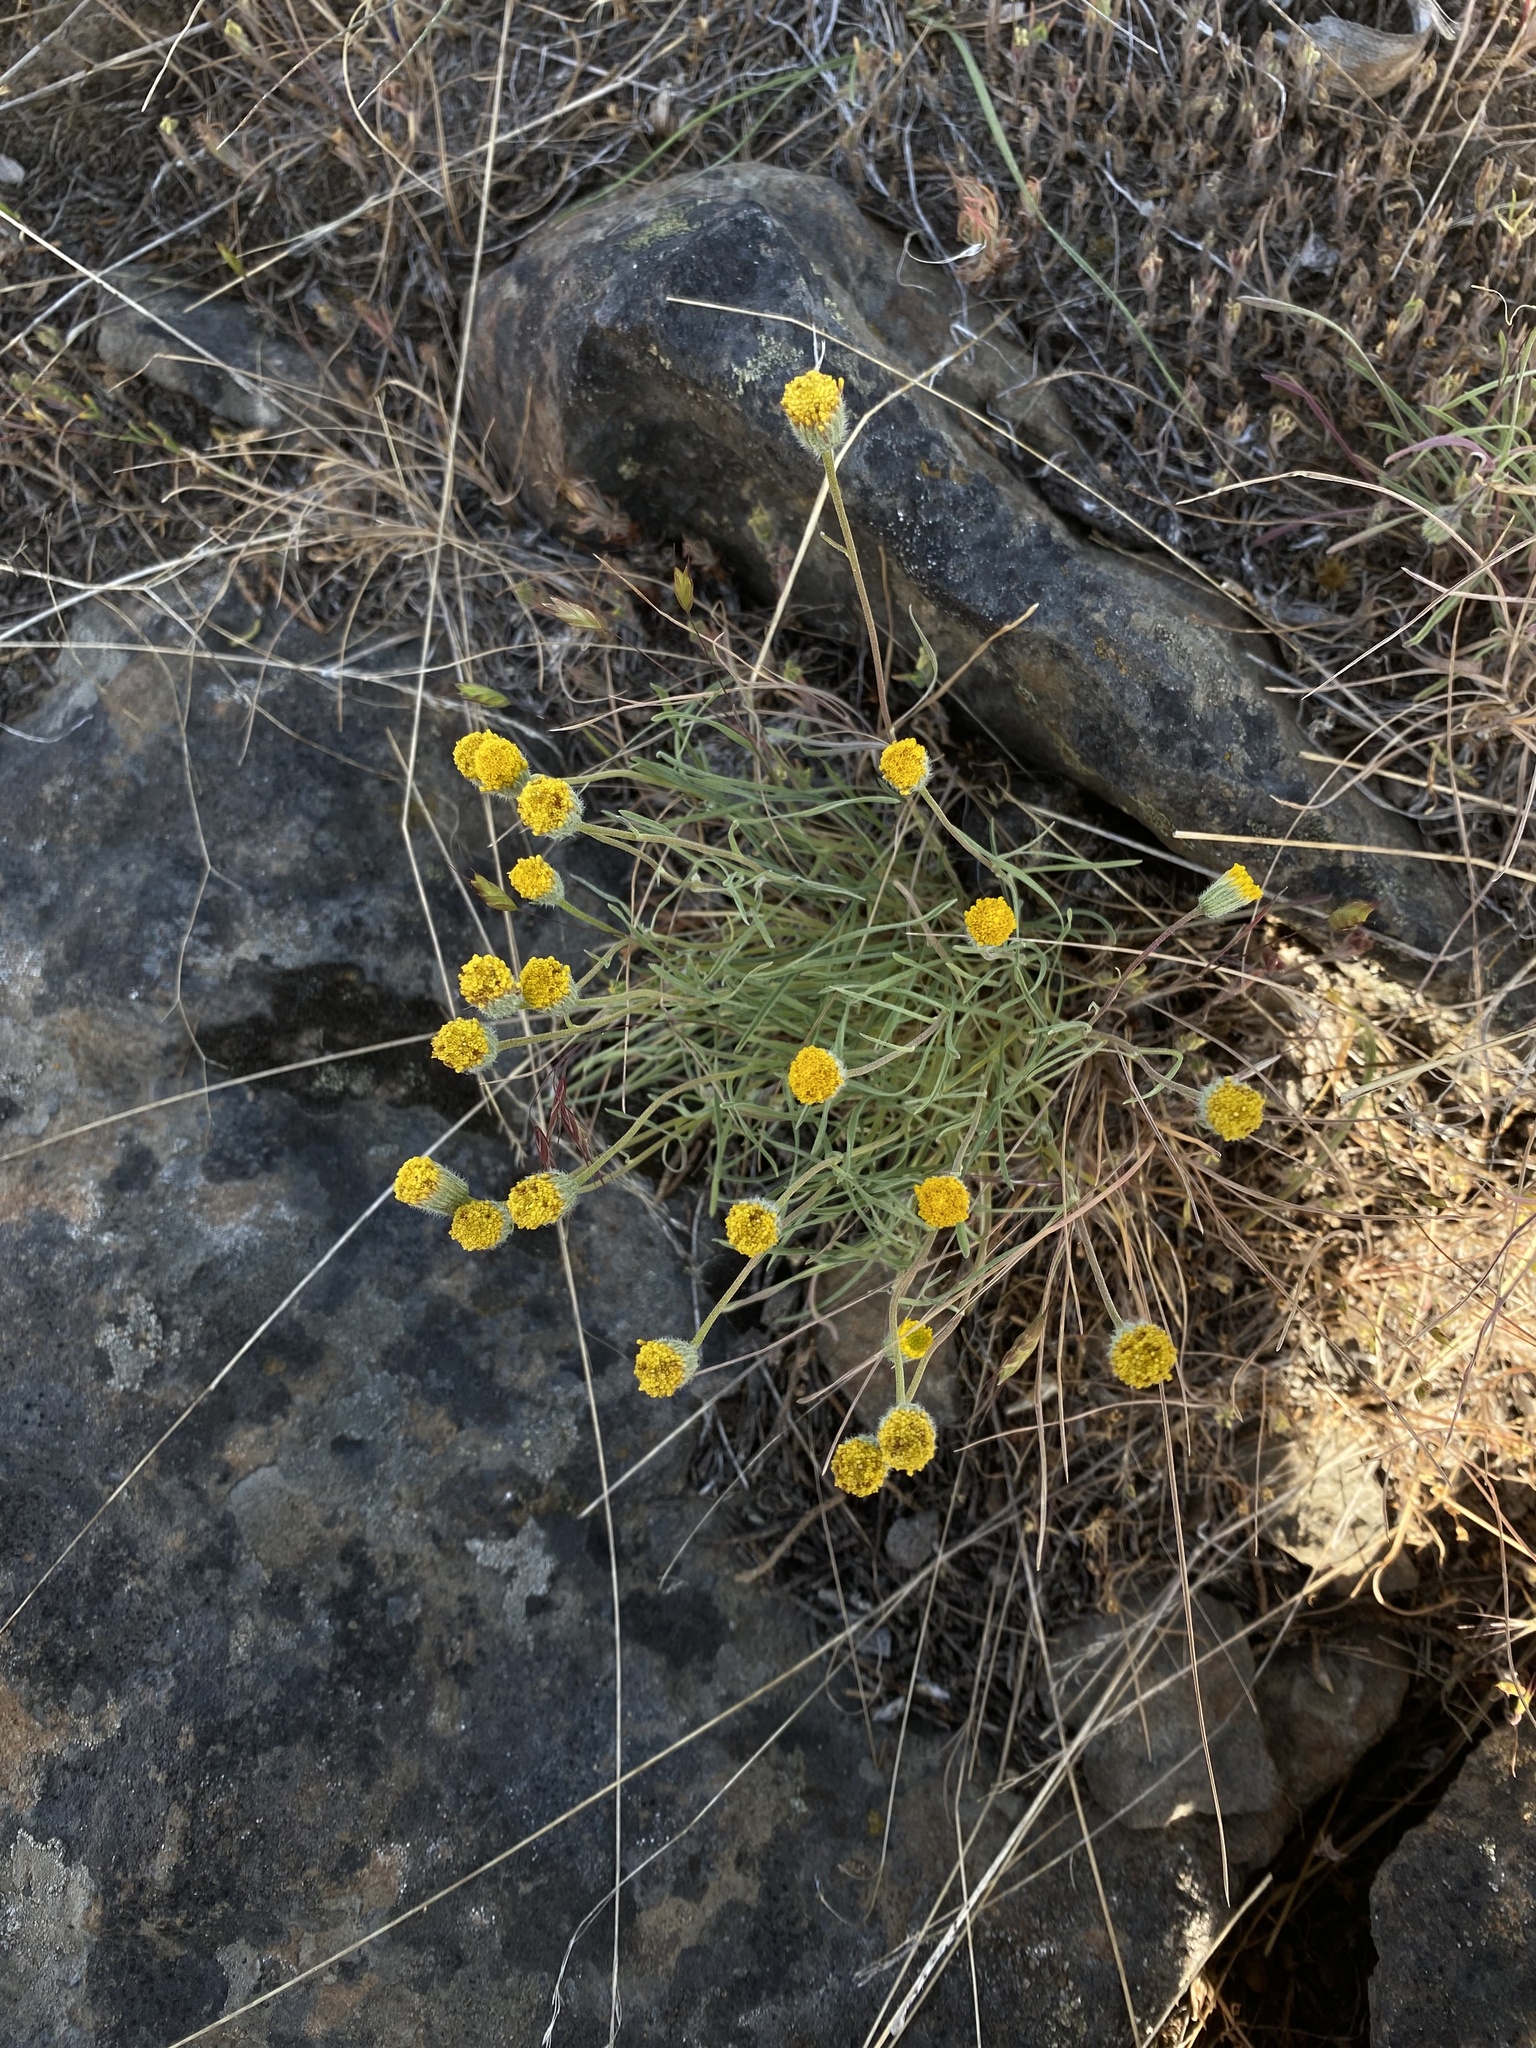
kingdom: Plantae
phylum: Tracheophyta
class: Magnoliopsida
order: Asterales
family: Asteraceae
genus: Erigeron
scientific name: Erigeron bloomeri
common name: Bloomer's fleabane
